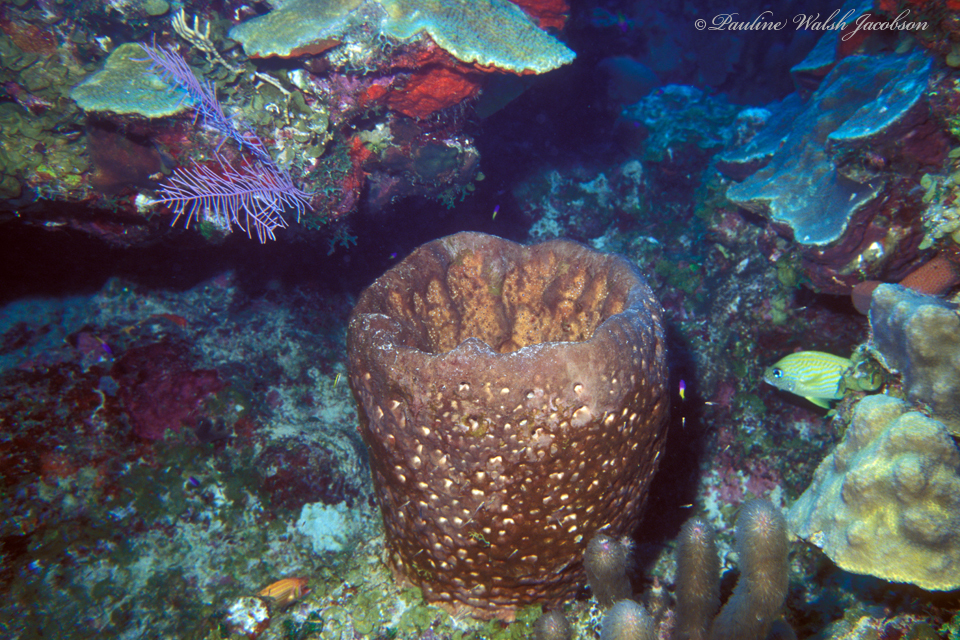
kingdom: Animalia
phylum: Chordata
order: Perciformes
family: Haemulidae
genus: Haemulon
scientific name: Haemulon flavolineatum
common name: French grunt
